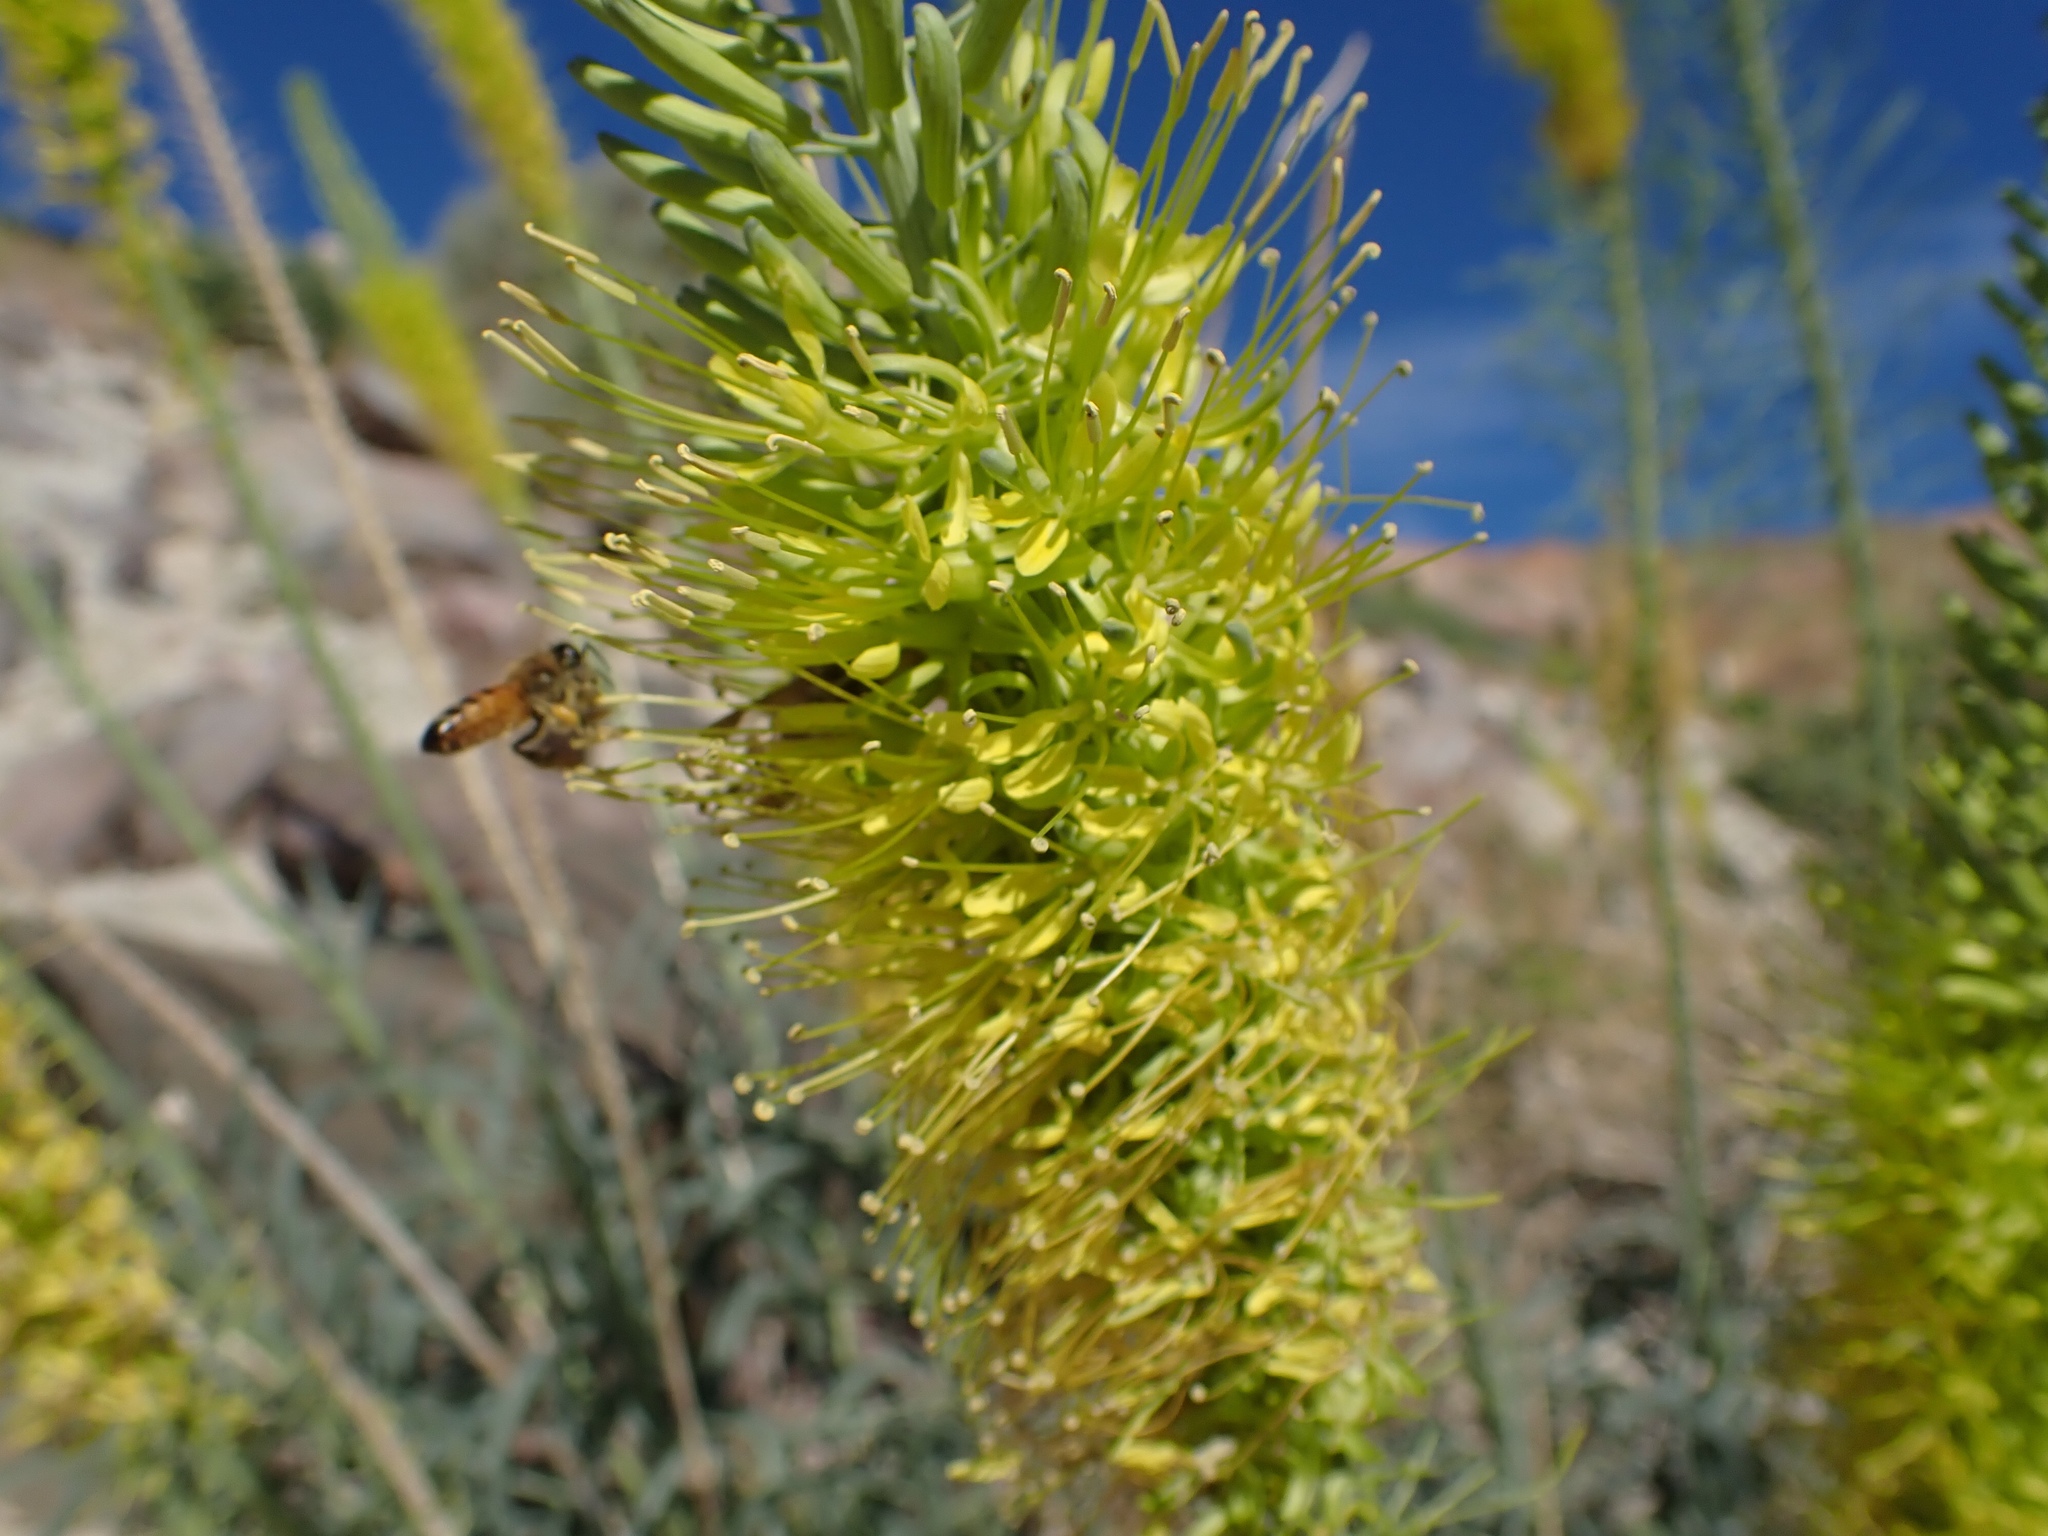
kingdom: Plantae
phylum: Tracheophyta
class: Magnoliopsida
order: Brassicales
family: Brassicaceae
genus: Stanleya
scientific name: Stanleya pinnata
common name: Prince's-plume
